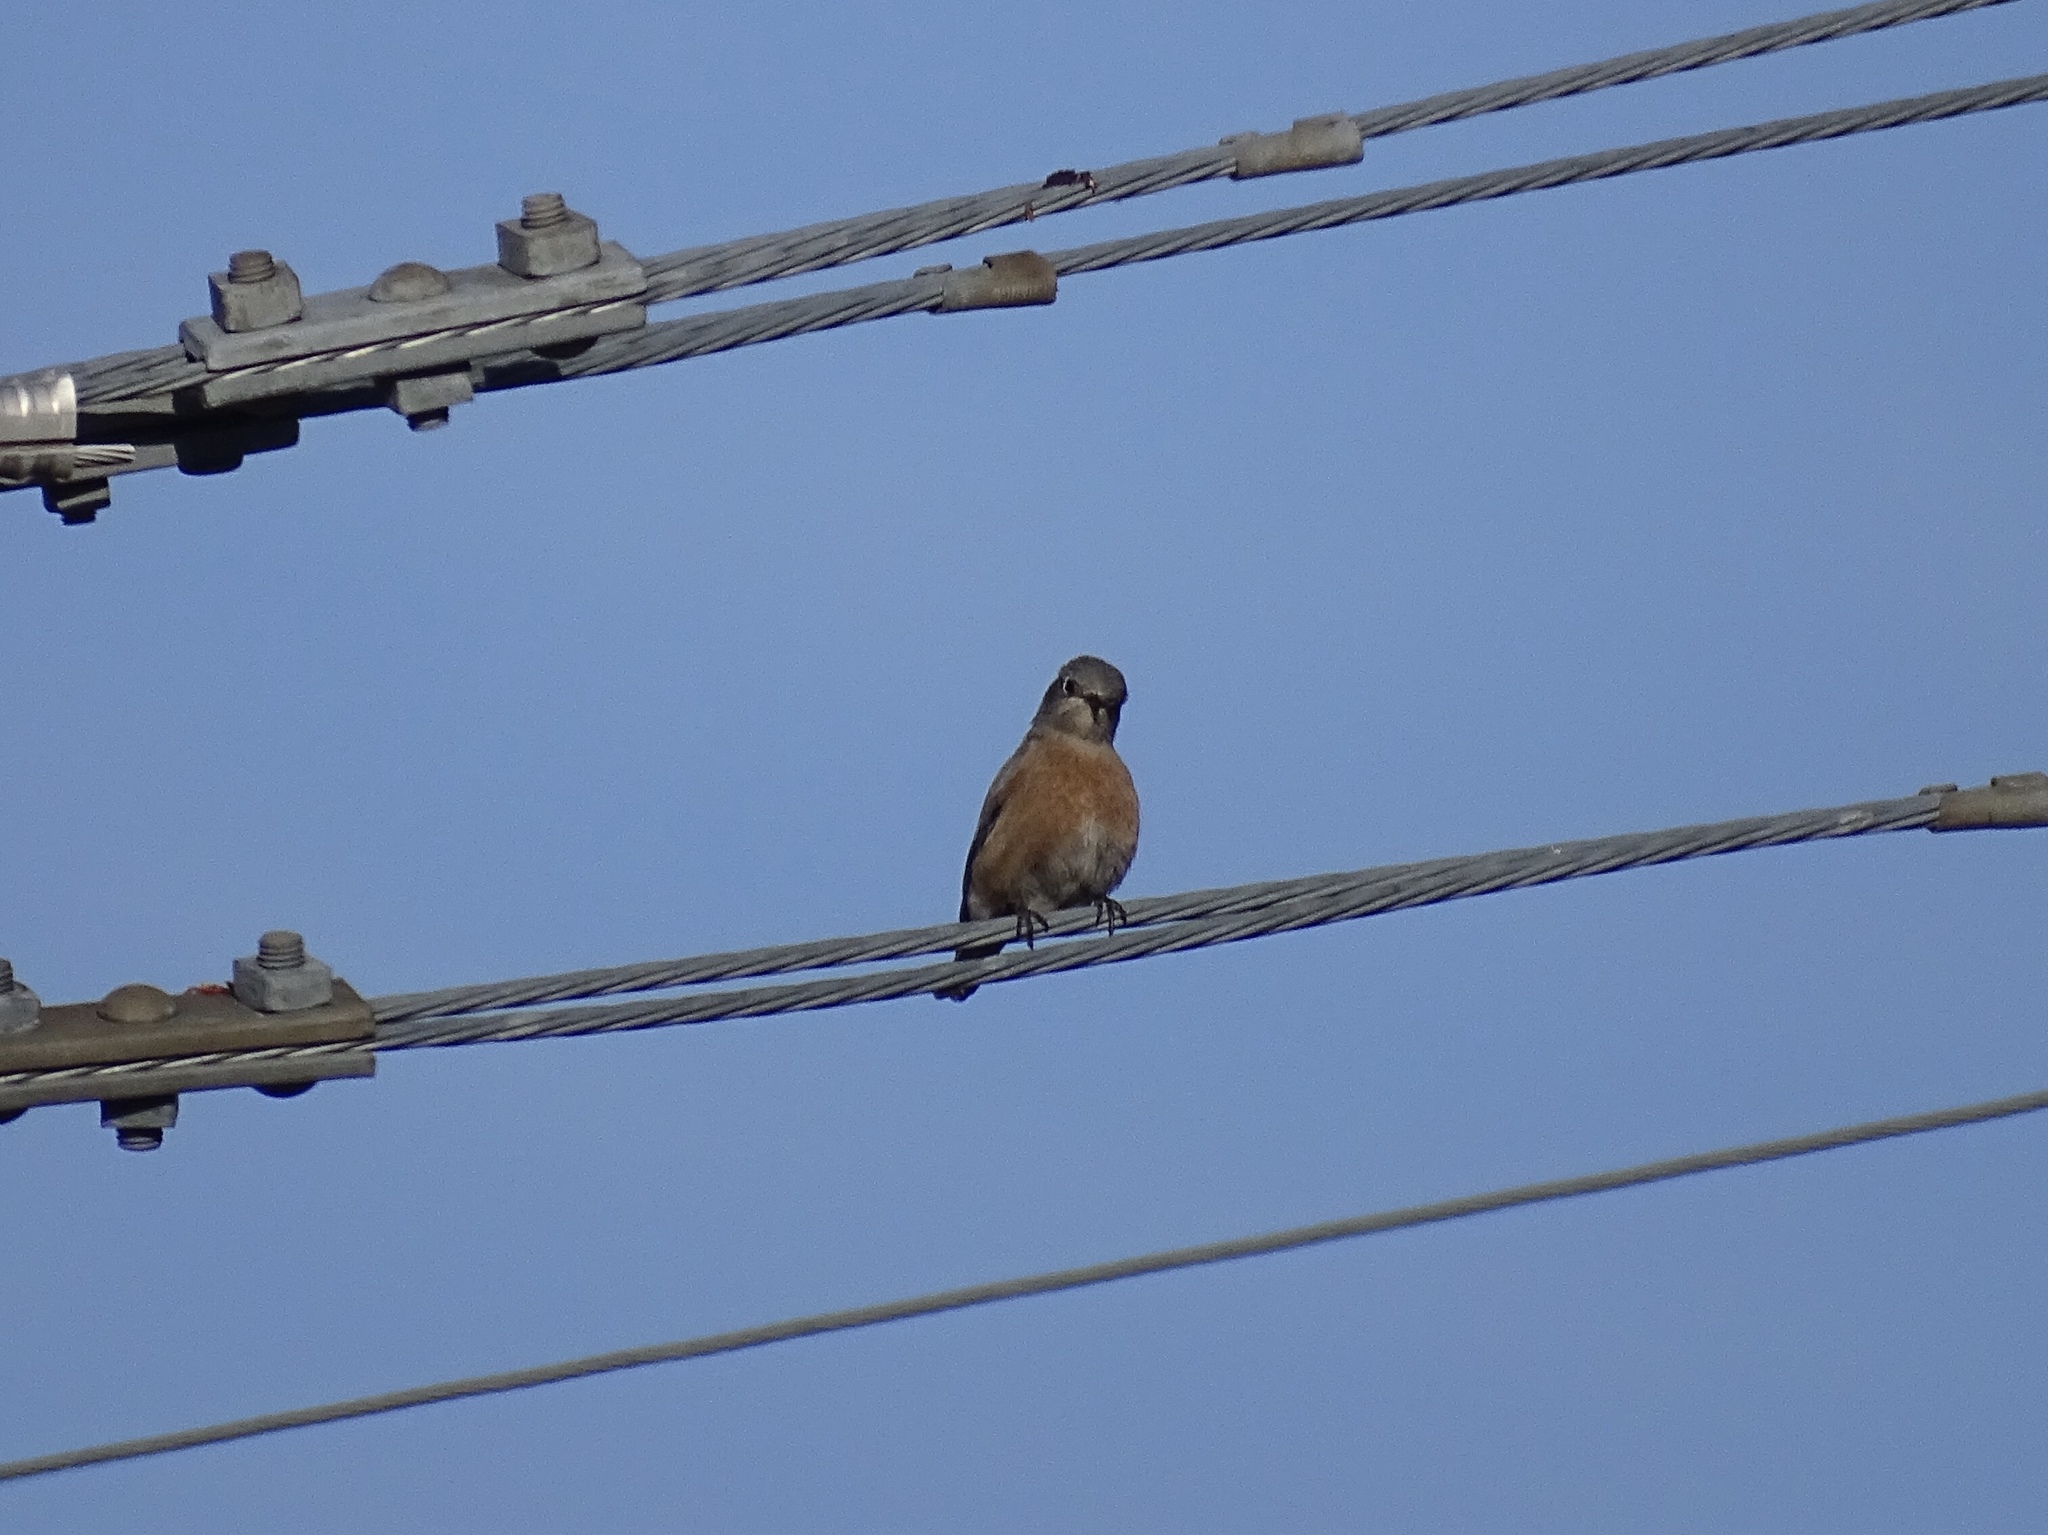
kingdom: Animalia
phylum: Chordata
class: Aves
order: Passeriformes
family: Turdidae
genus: Sialia
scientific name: Sialia mexicana
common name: Western bluebird
